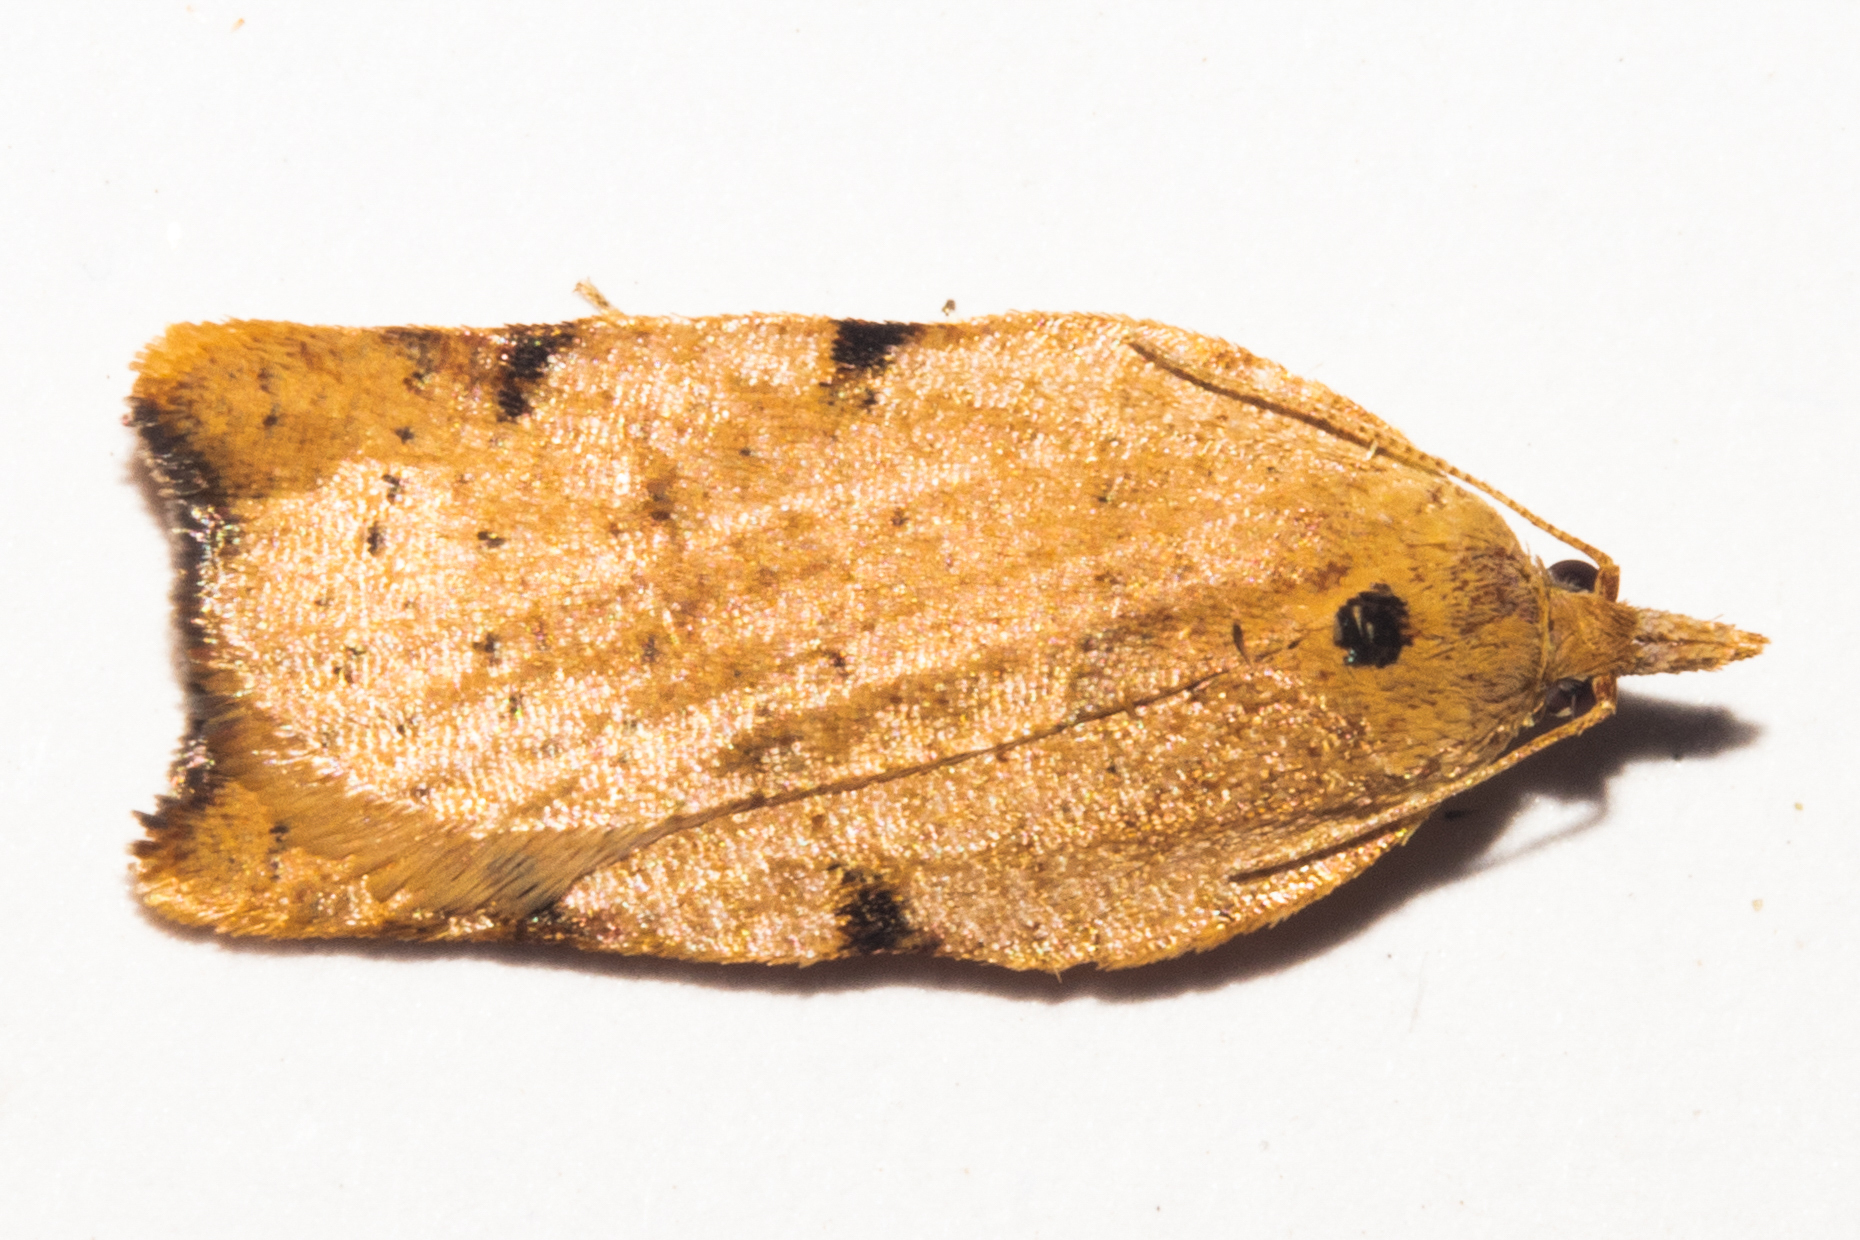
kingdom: Animalia
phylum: Arthropoda
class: Insecta
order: Lepidoptera
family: Tortricidae
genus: Apoctena
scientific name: Apoctena flavescens
